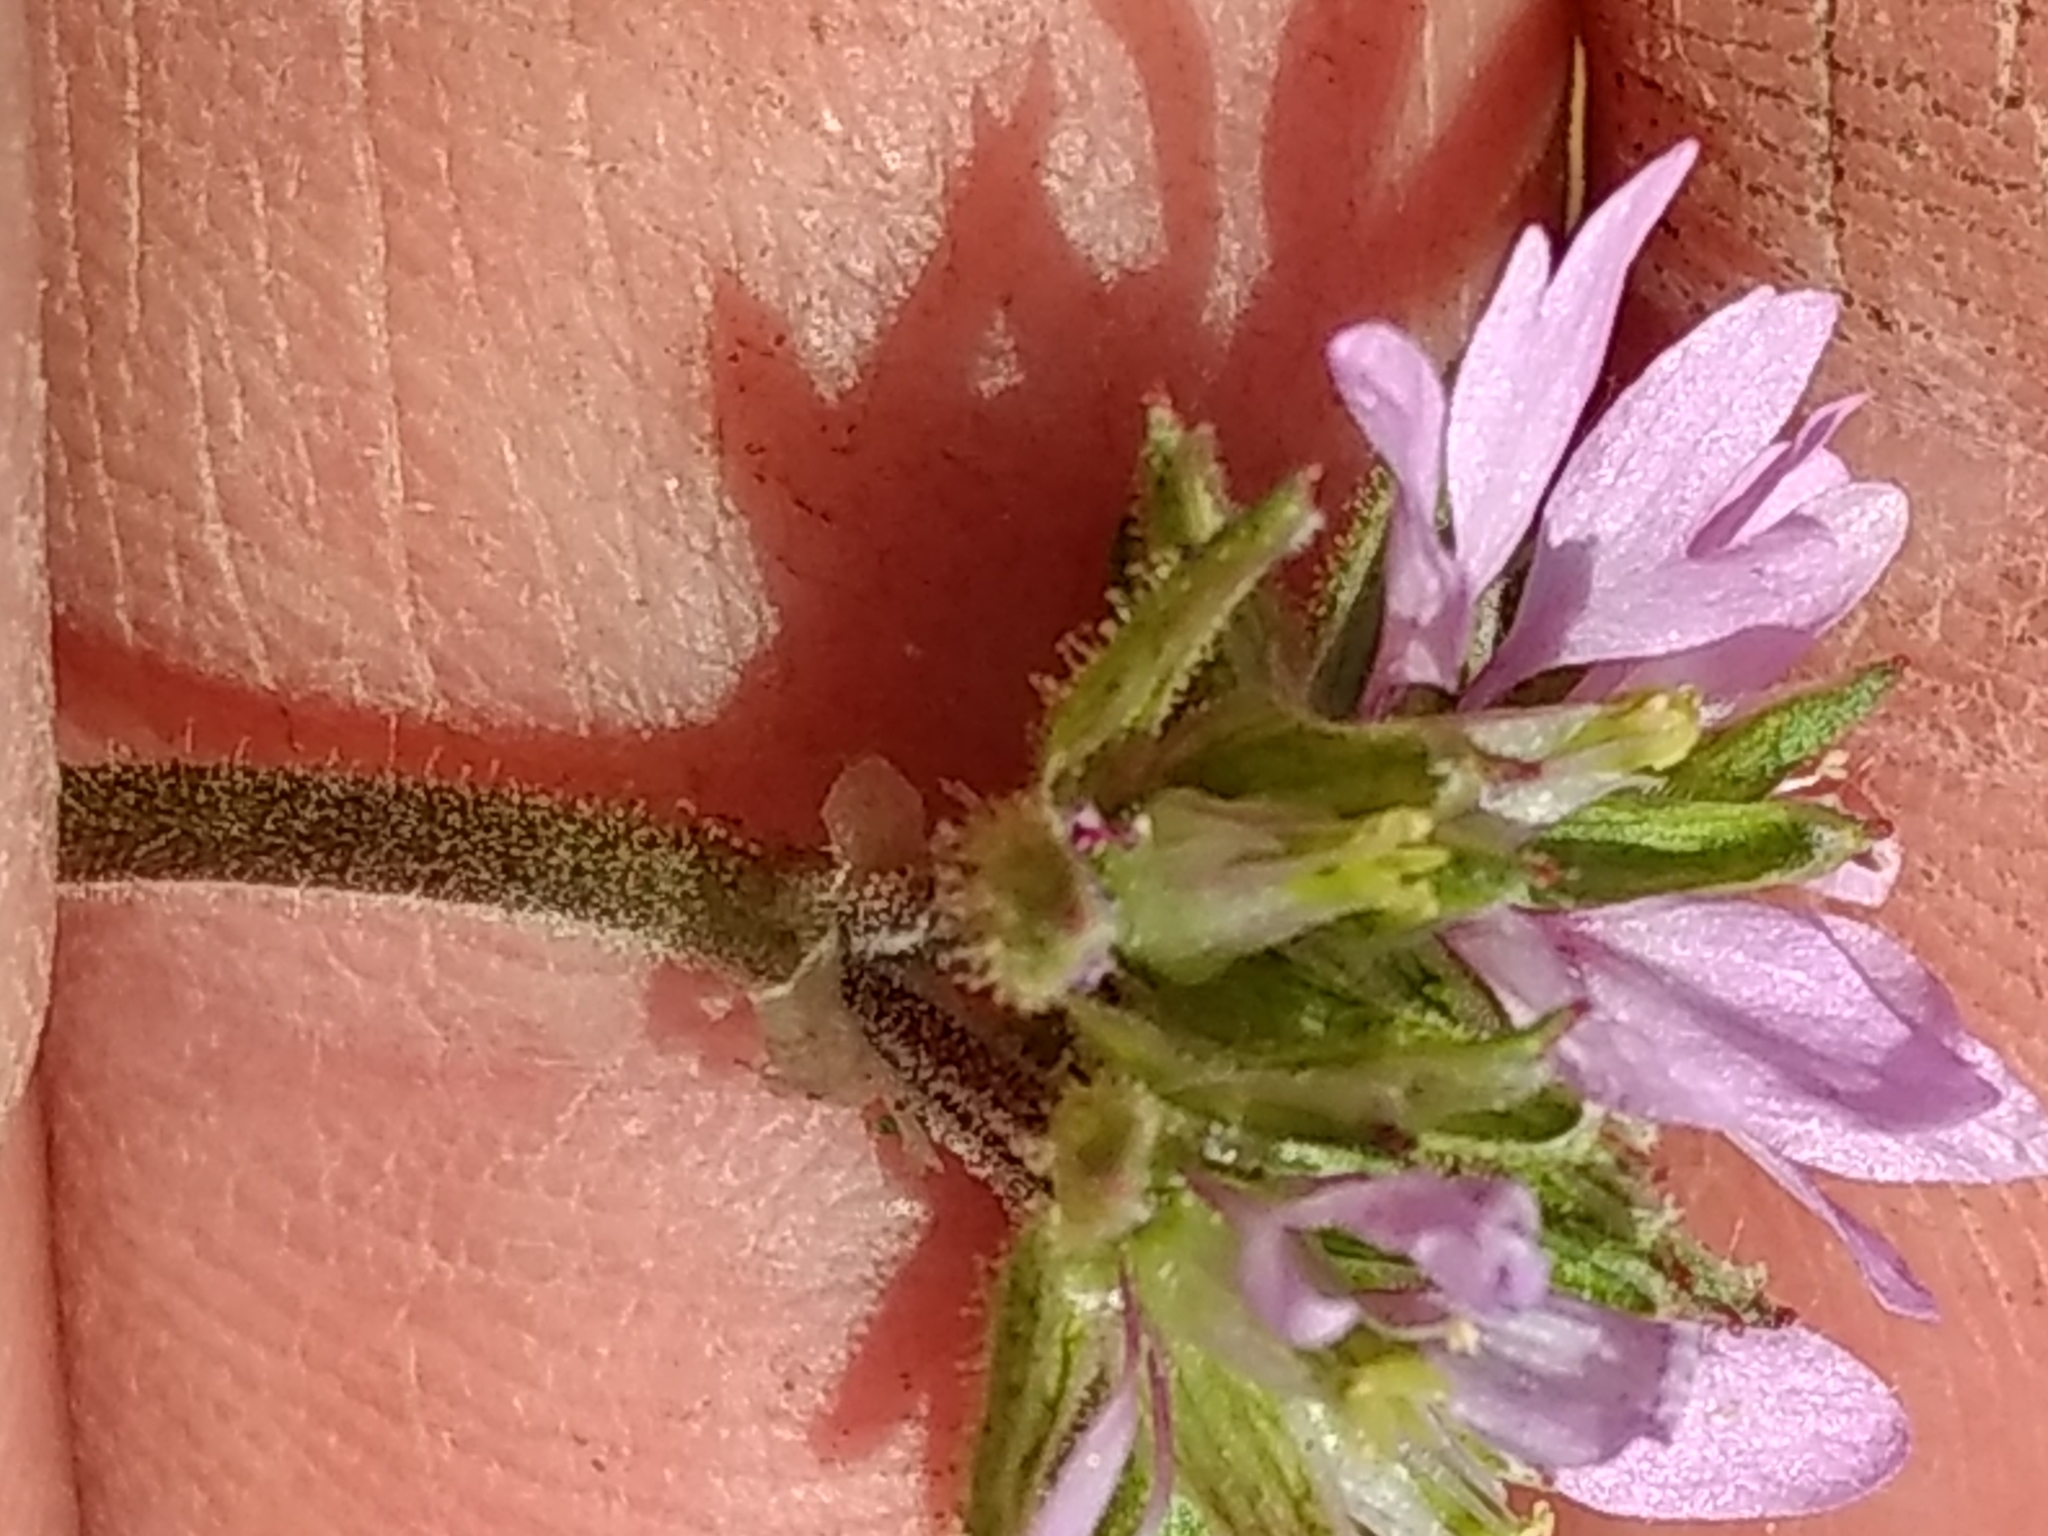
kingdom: Plantae
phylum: Tracheophyta
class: Magnoliopsida
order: Geraniales
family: Geraniaceae
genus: Erodium
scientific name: Erodium moschatum
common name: Musk stork's-bill
